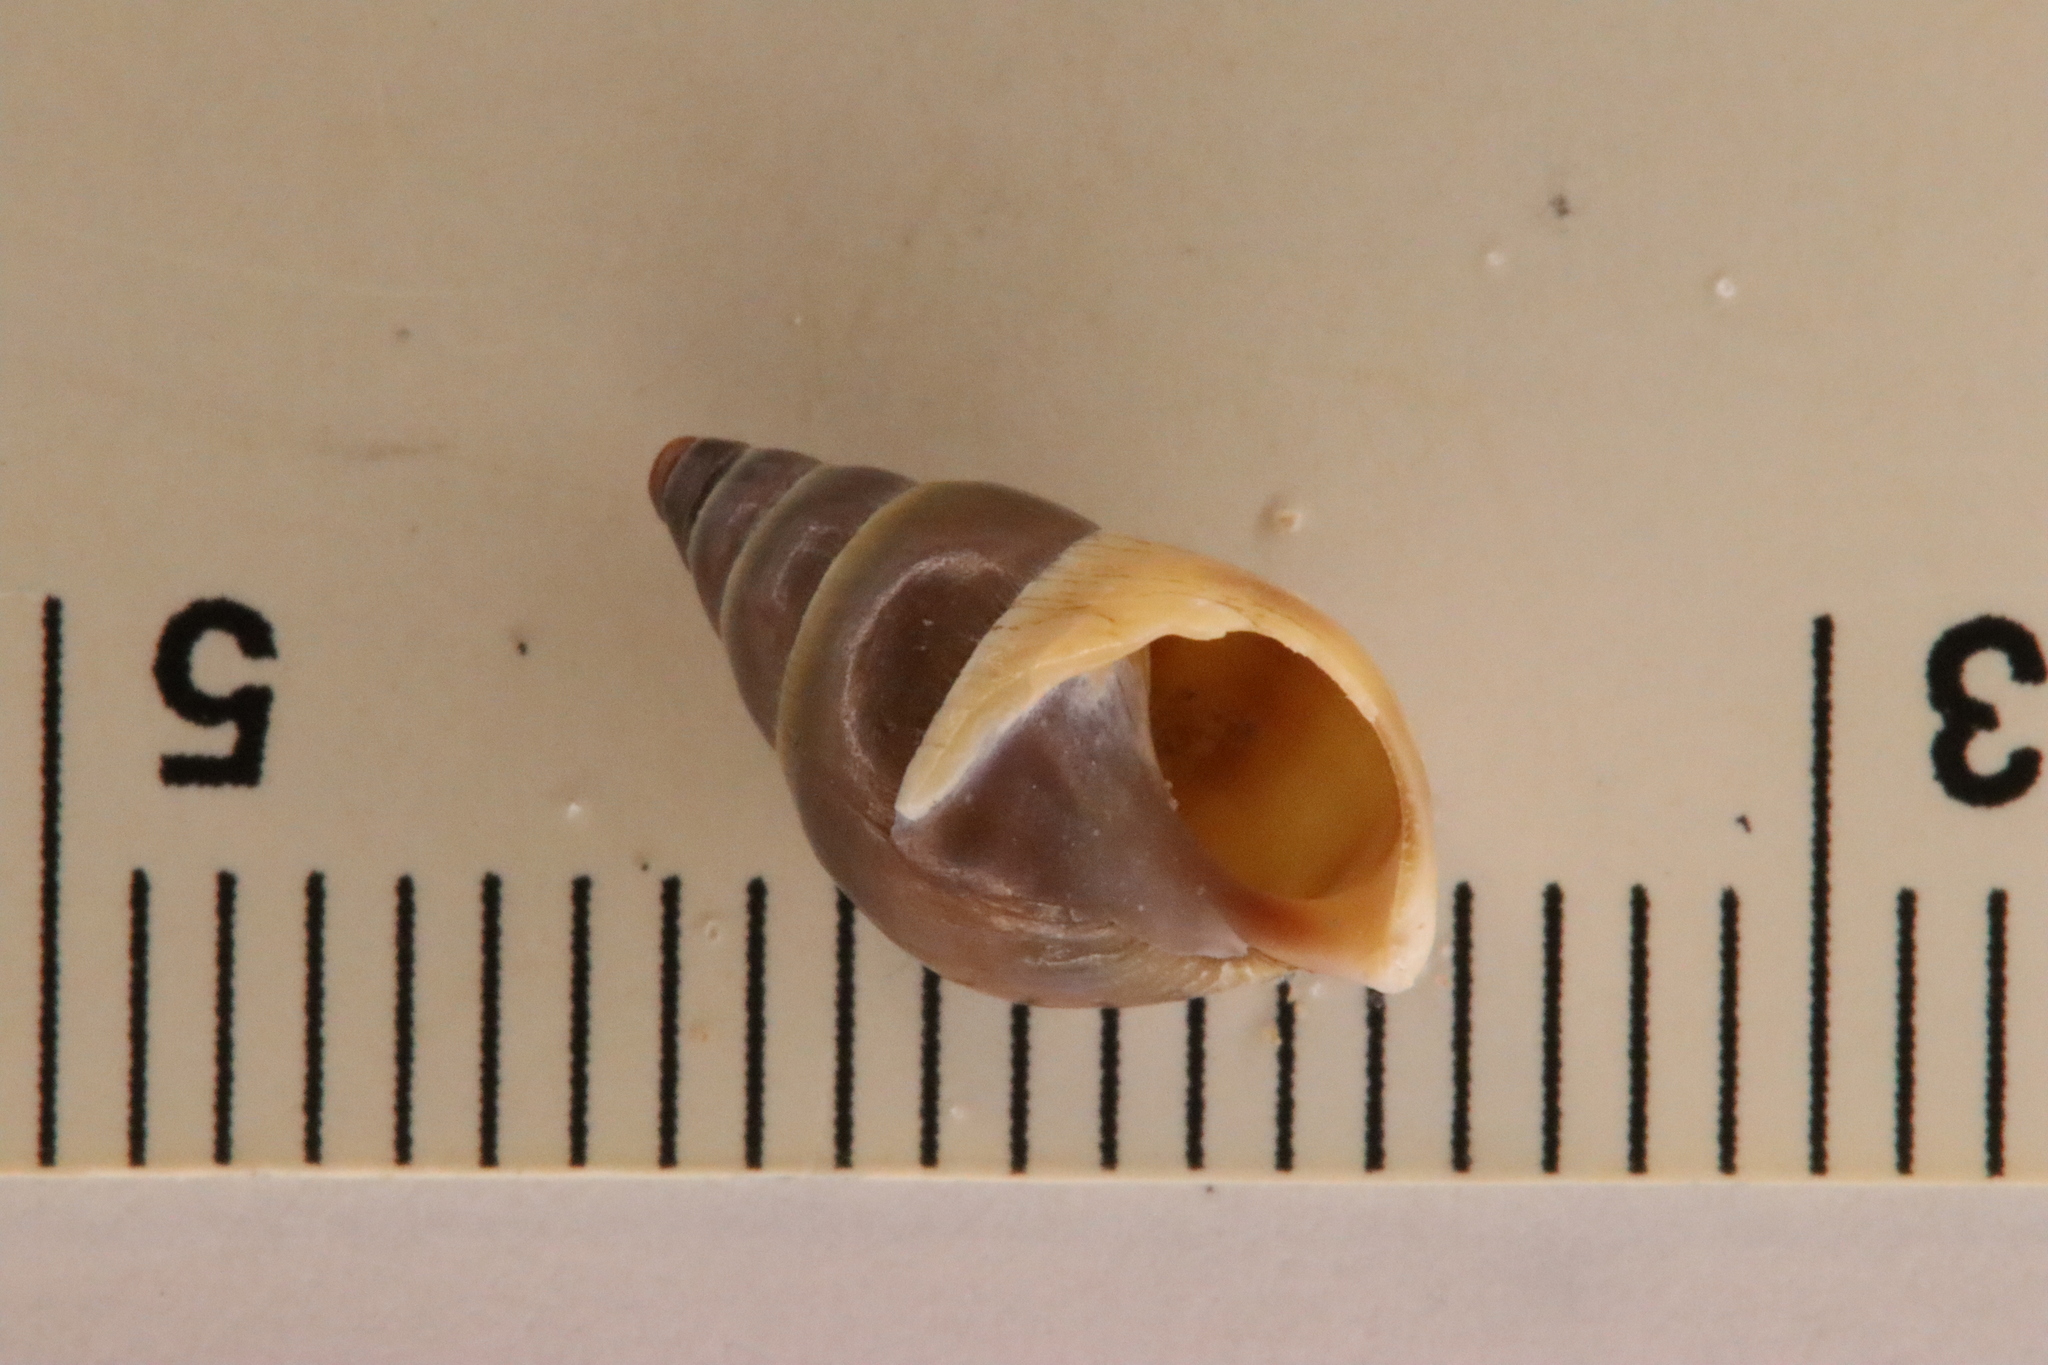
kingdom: Animalia
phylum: Mollusca
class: Gastropoda
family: Pleuroceridae
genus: Elimia
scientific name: Elimia livescens
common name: Liver elimia
